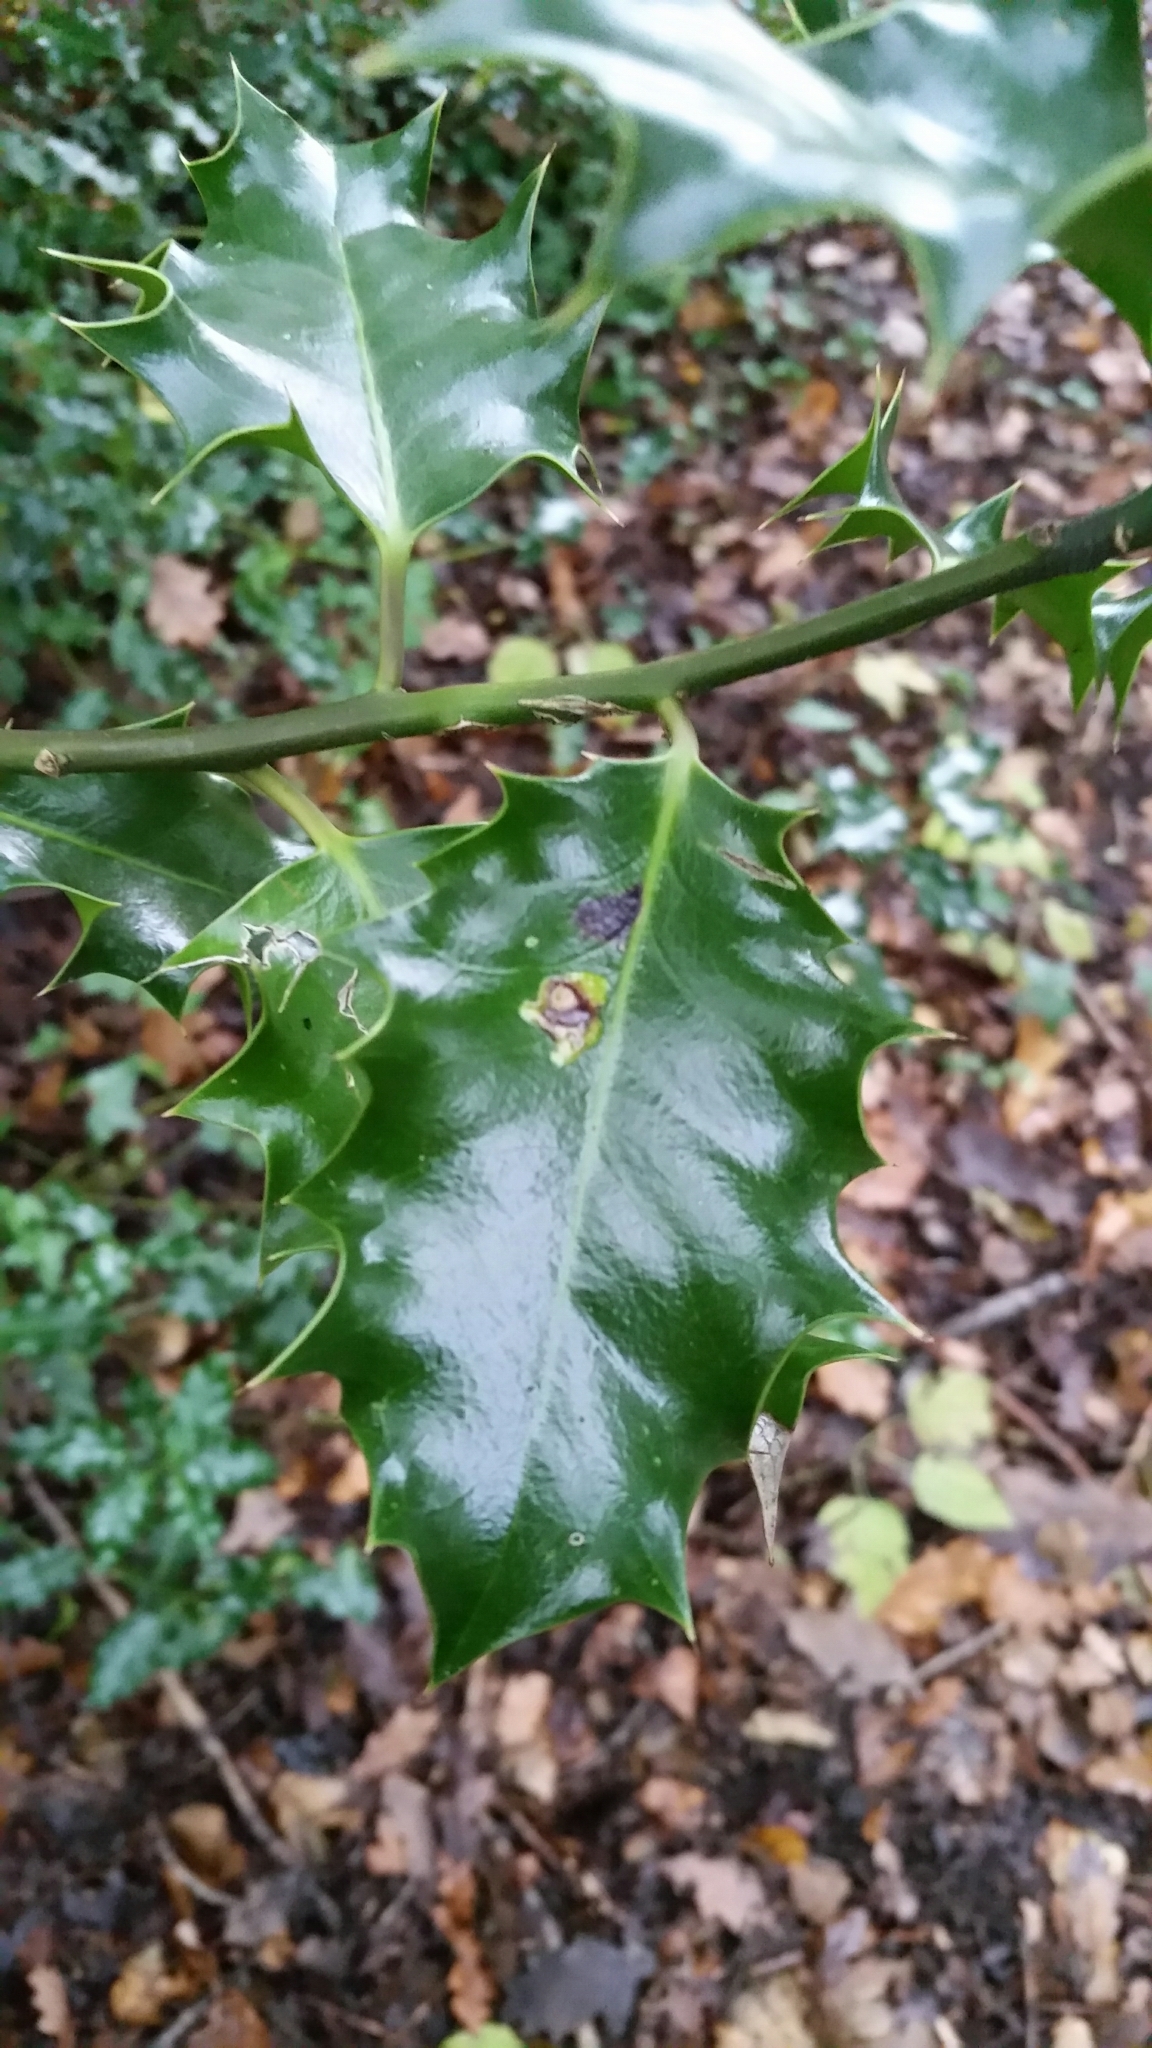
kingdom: Animalia
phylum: Arthropoda
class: Insecta
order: Diptera
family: Agromyzidae
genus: Phytomyza
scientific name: Phytomyza ilicis
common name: Holly leafminer
